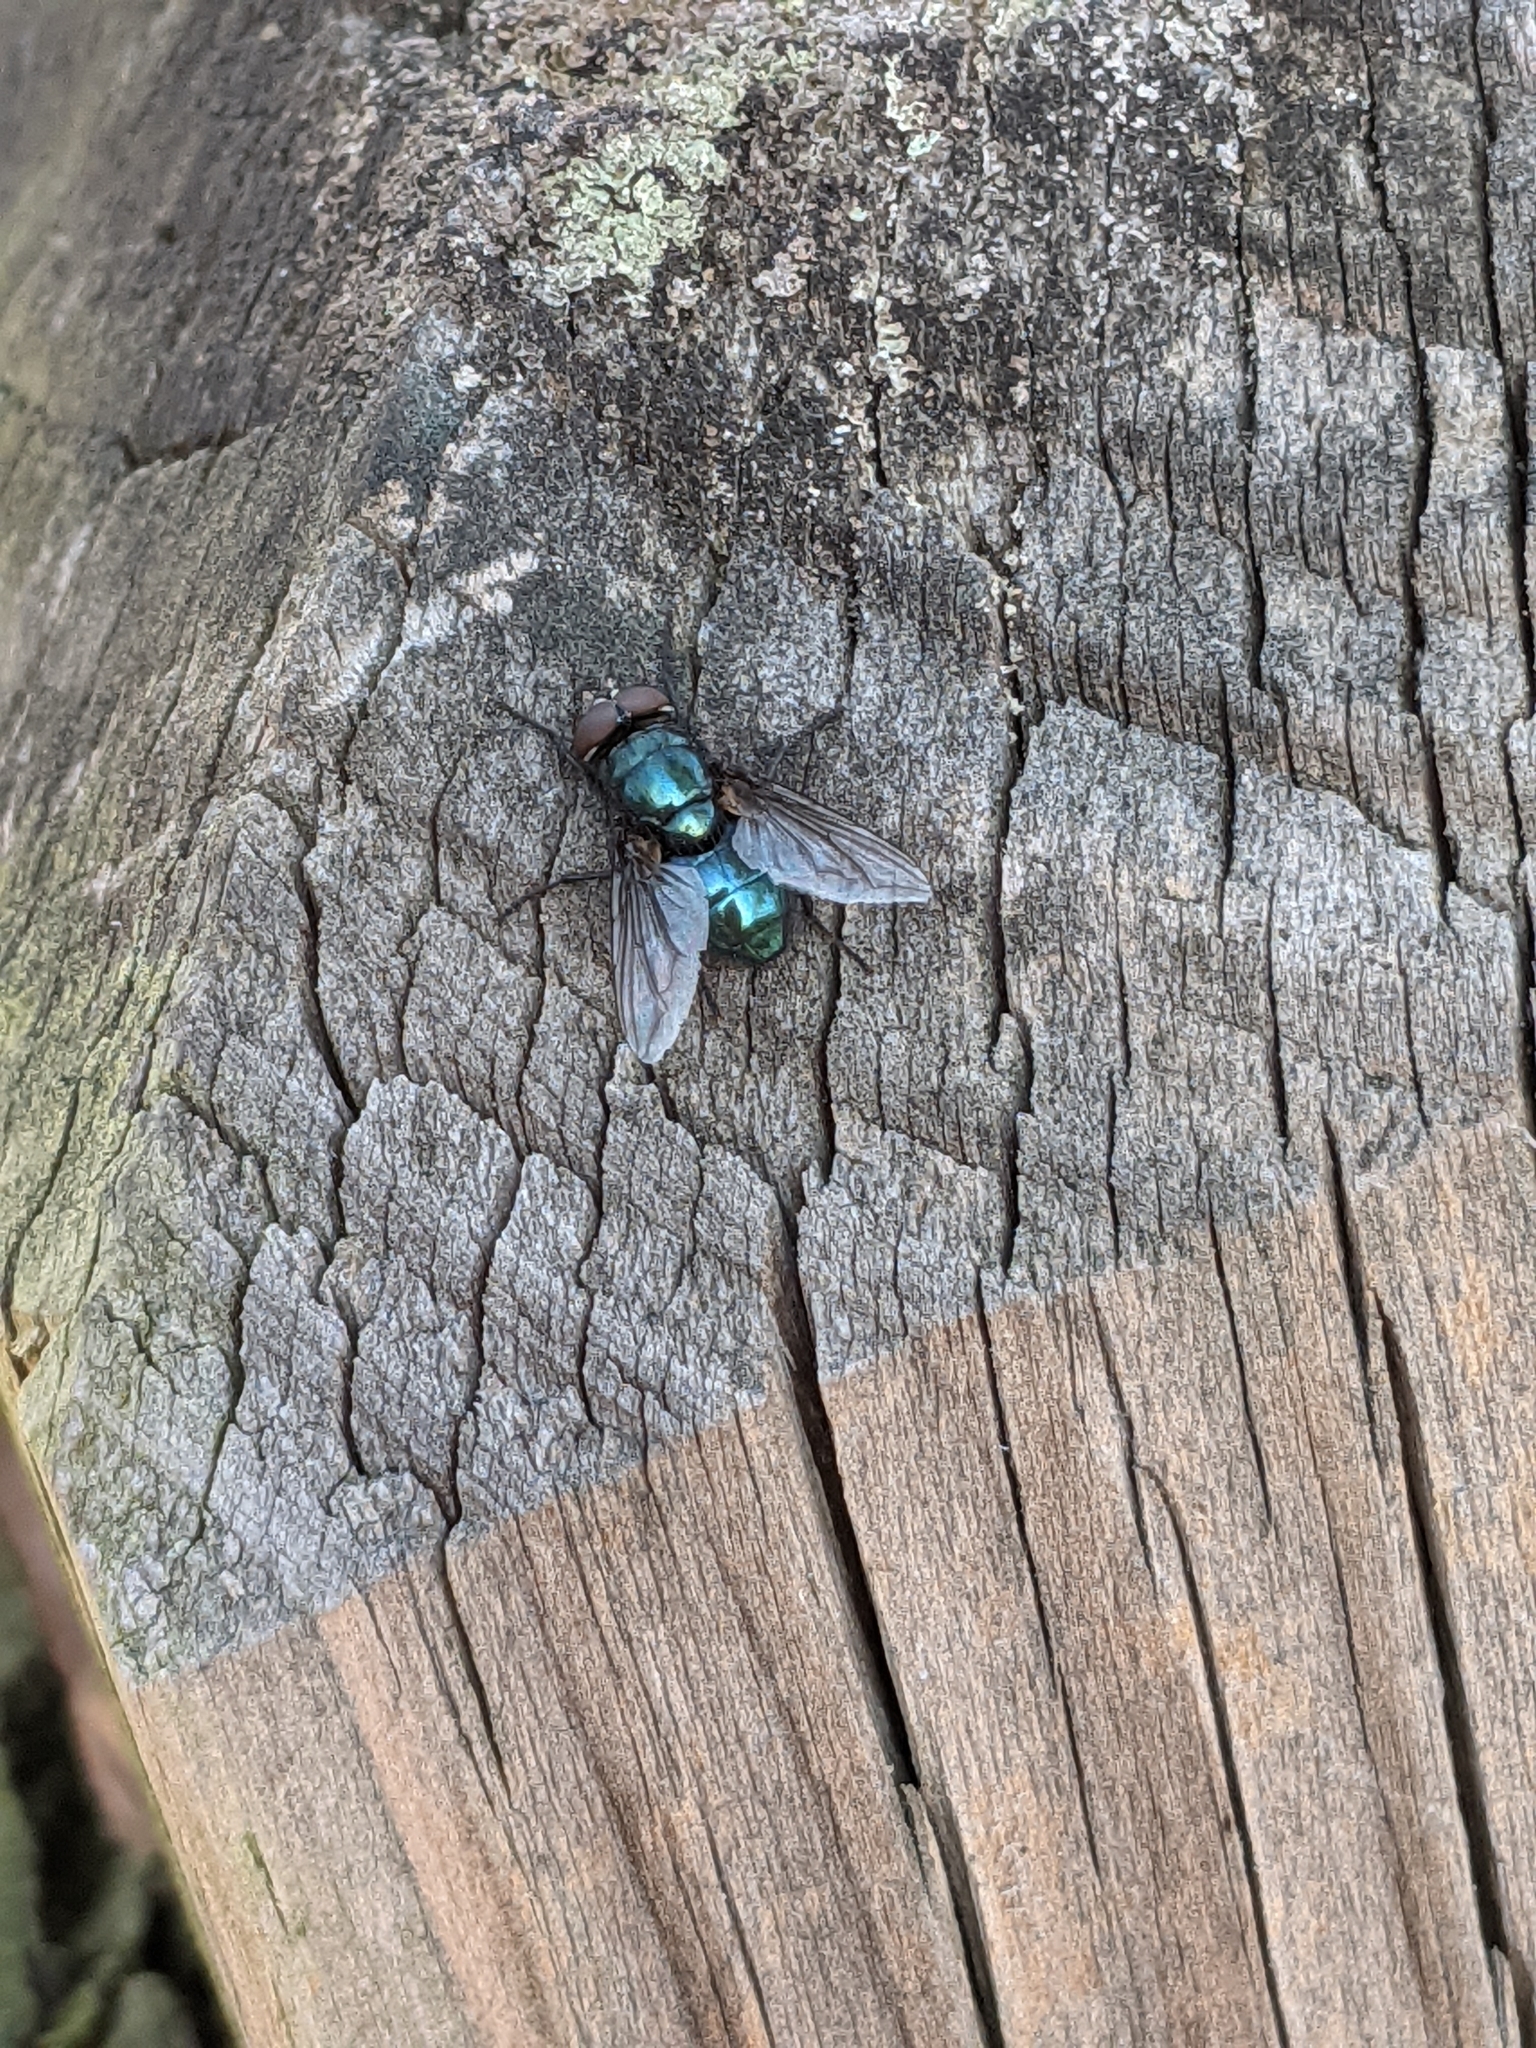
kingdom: Animalia
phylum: Arthropoda
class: Insecta
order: Diptera
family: Calliphoridae
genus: Phormia
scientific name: Phormia regina
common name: Black blow fly
